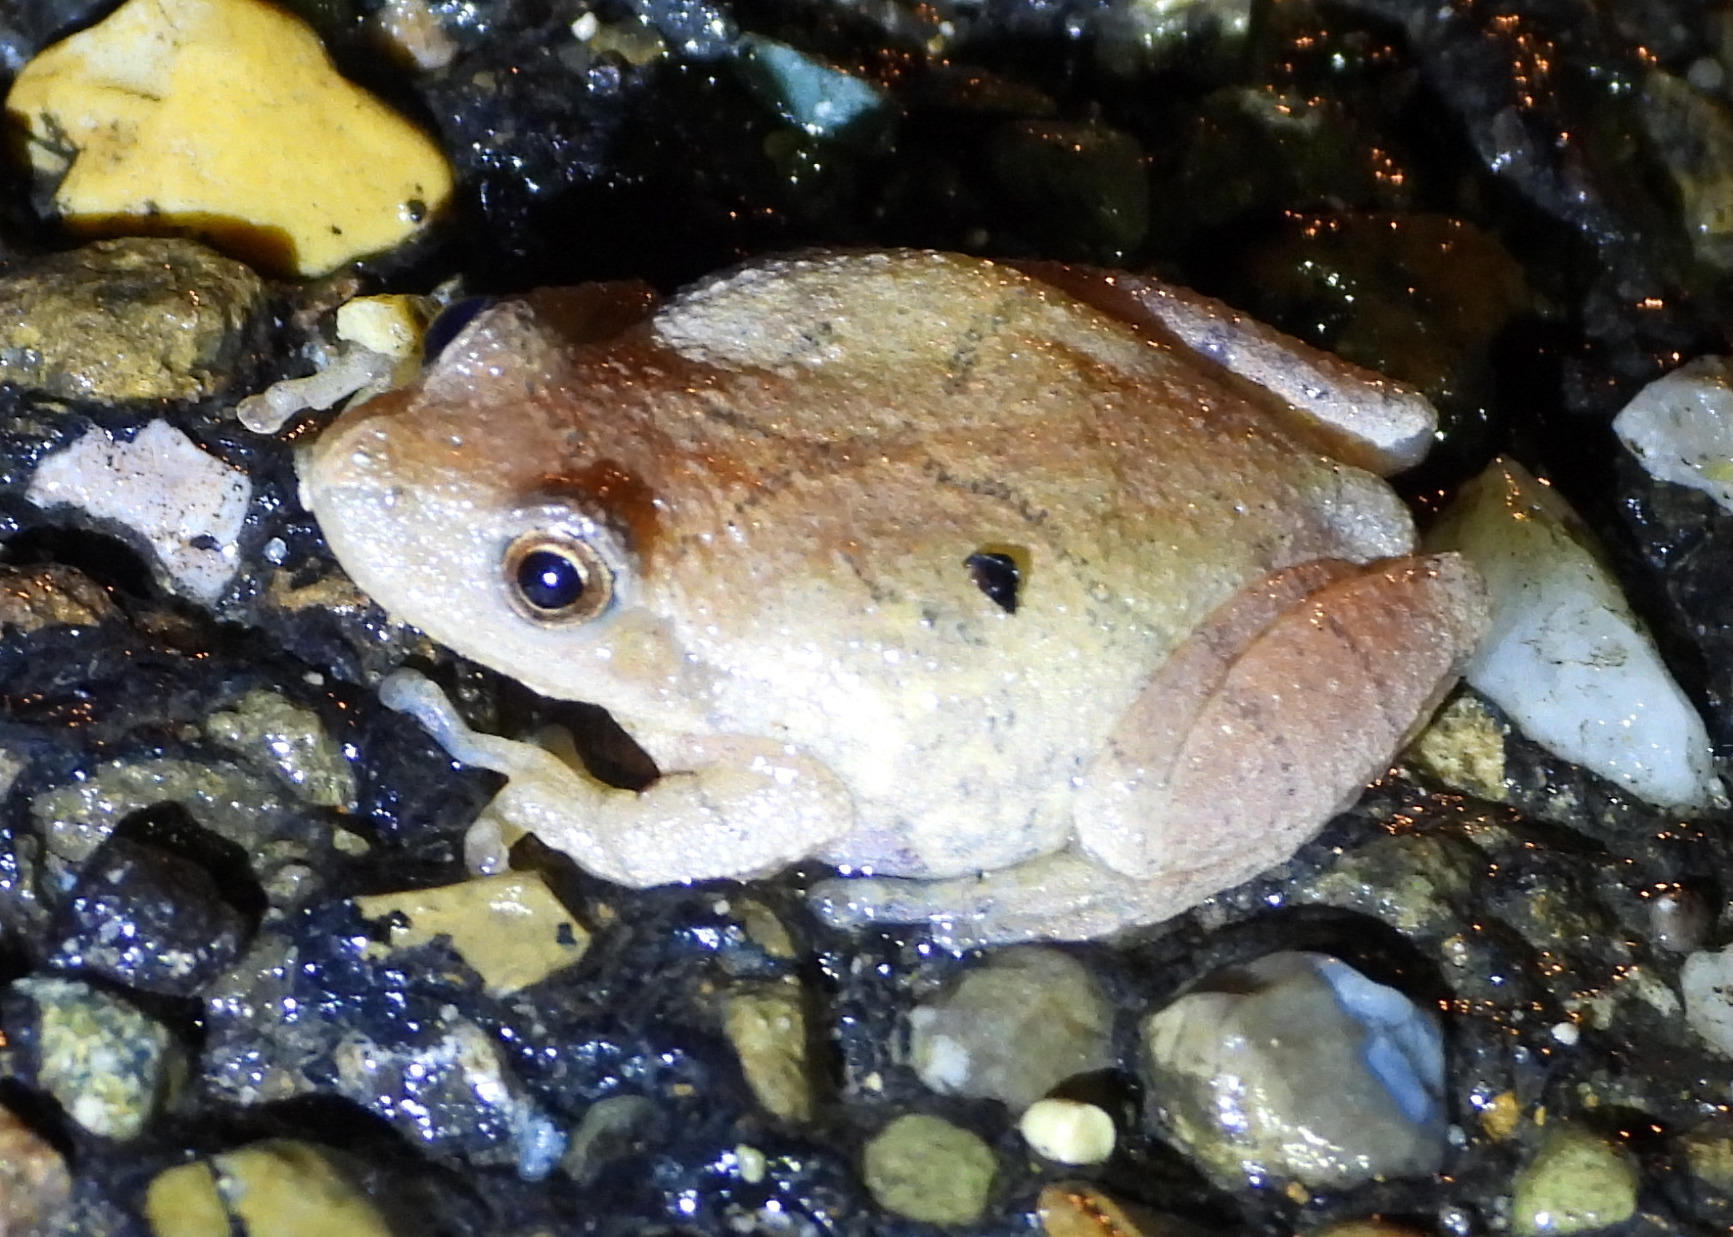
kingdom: Animalia
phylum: Chordata
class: Amphibia
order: Anura
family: Hylidae
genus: Pseudacris
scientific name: Pseudacris crucifer
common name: Spring peeper
